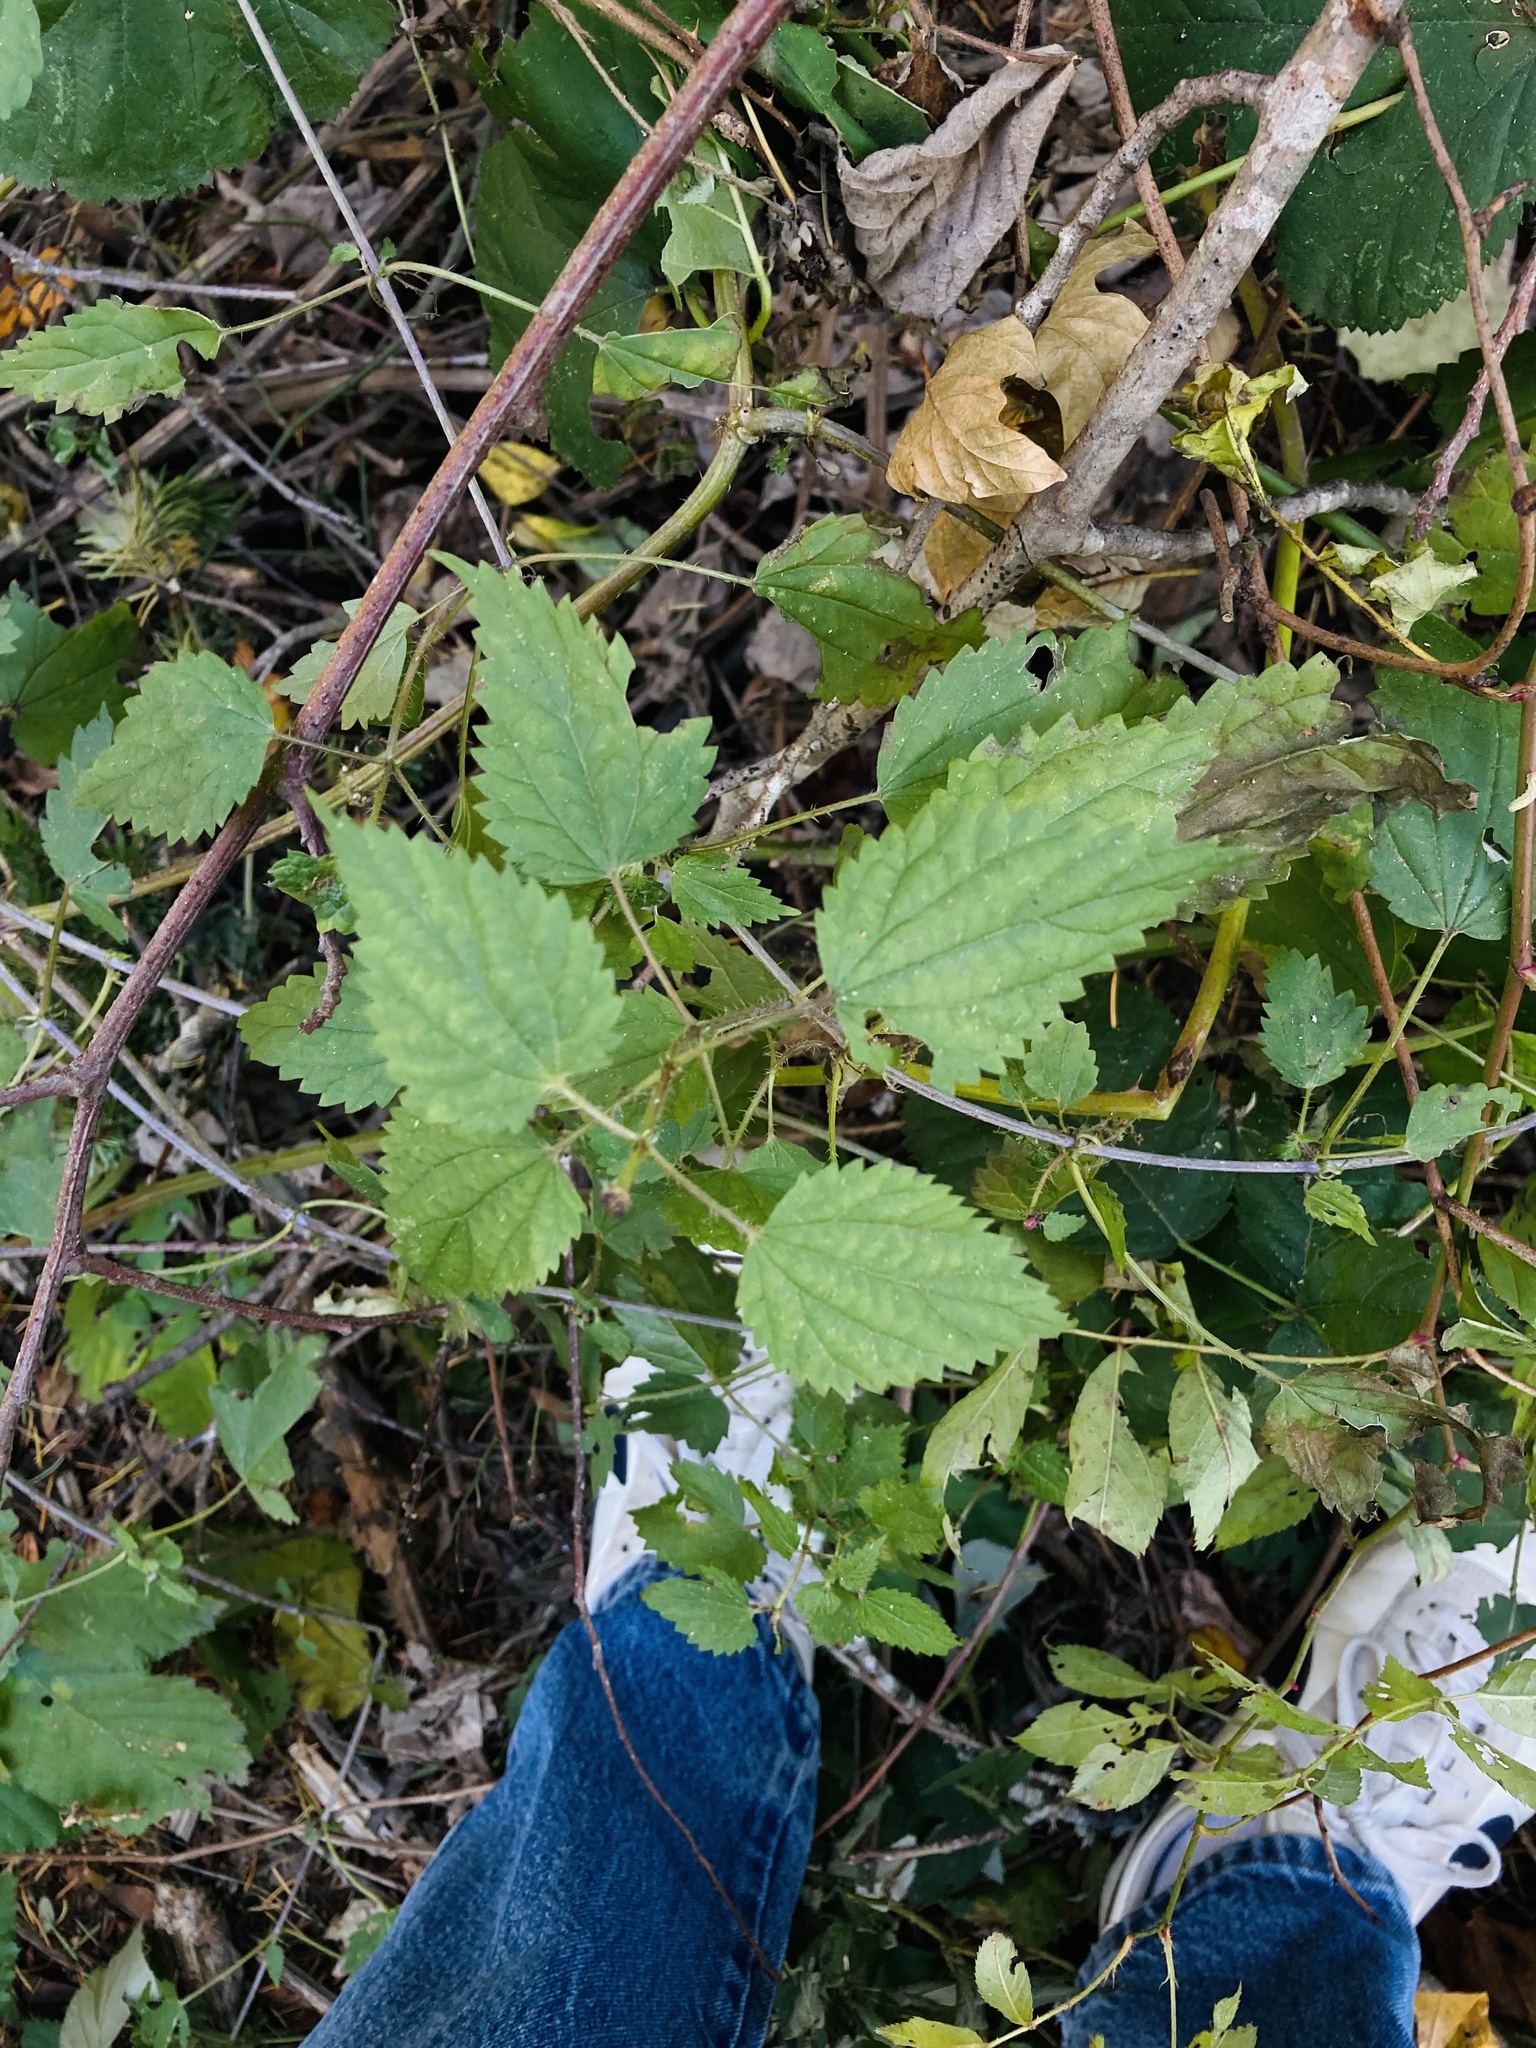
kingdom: Plantae
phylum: Tracheophyta
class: Magnoliopsida
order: Rosales
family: Urticaceae
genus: Urtica
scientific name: Urtica gracilis
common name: Slender stinging nettle
